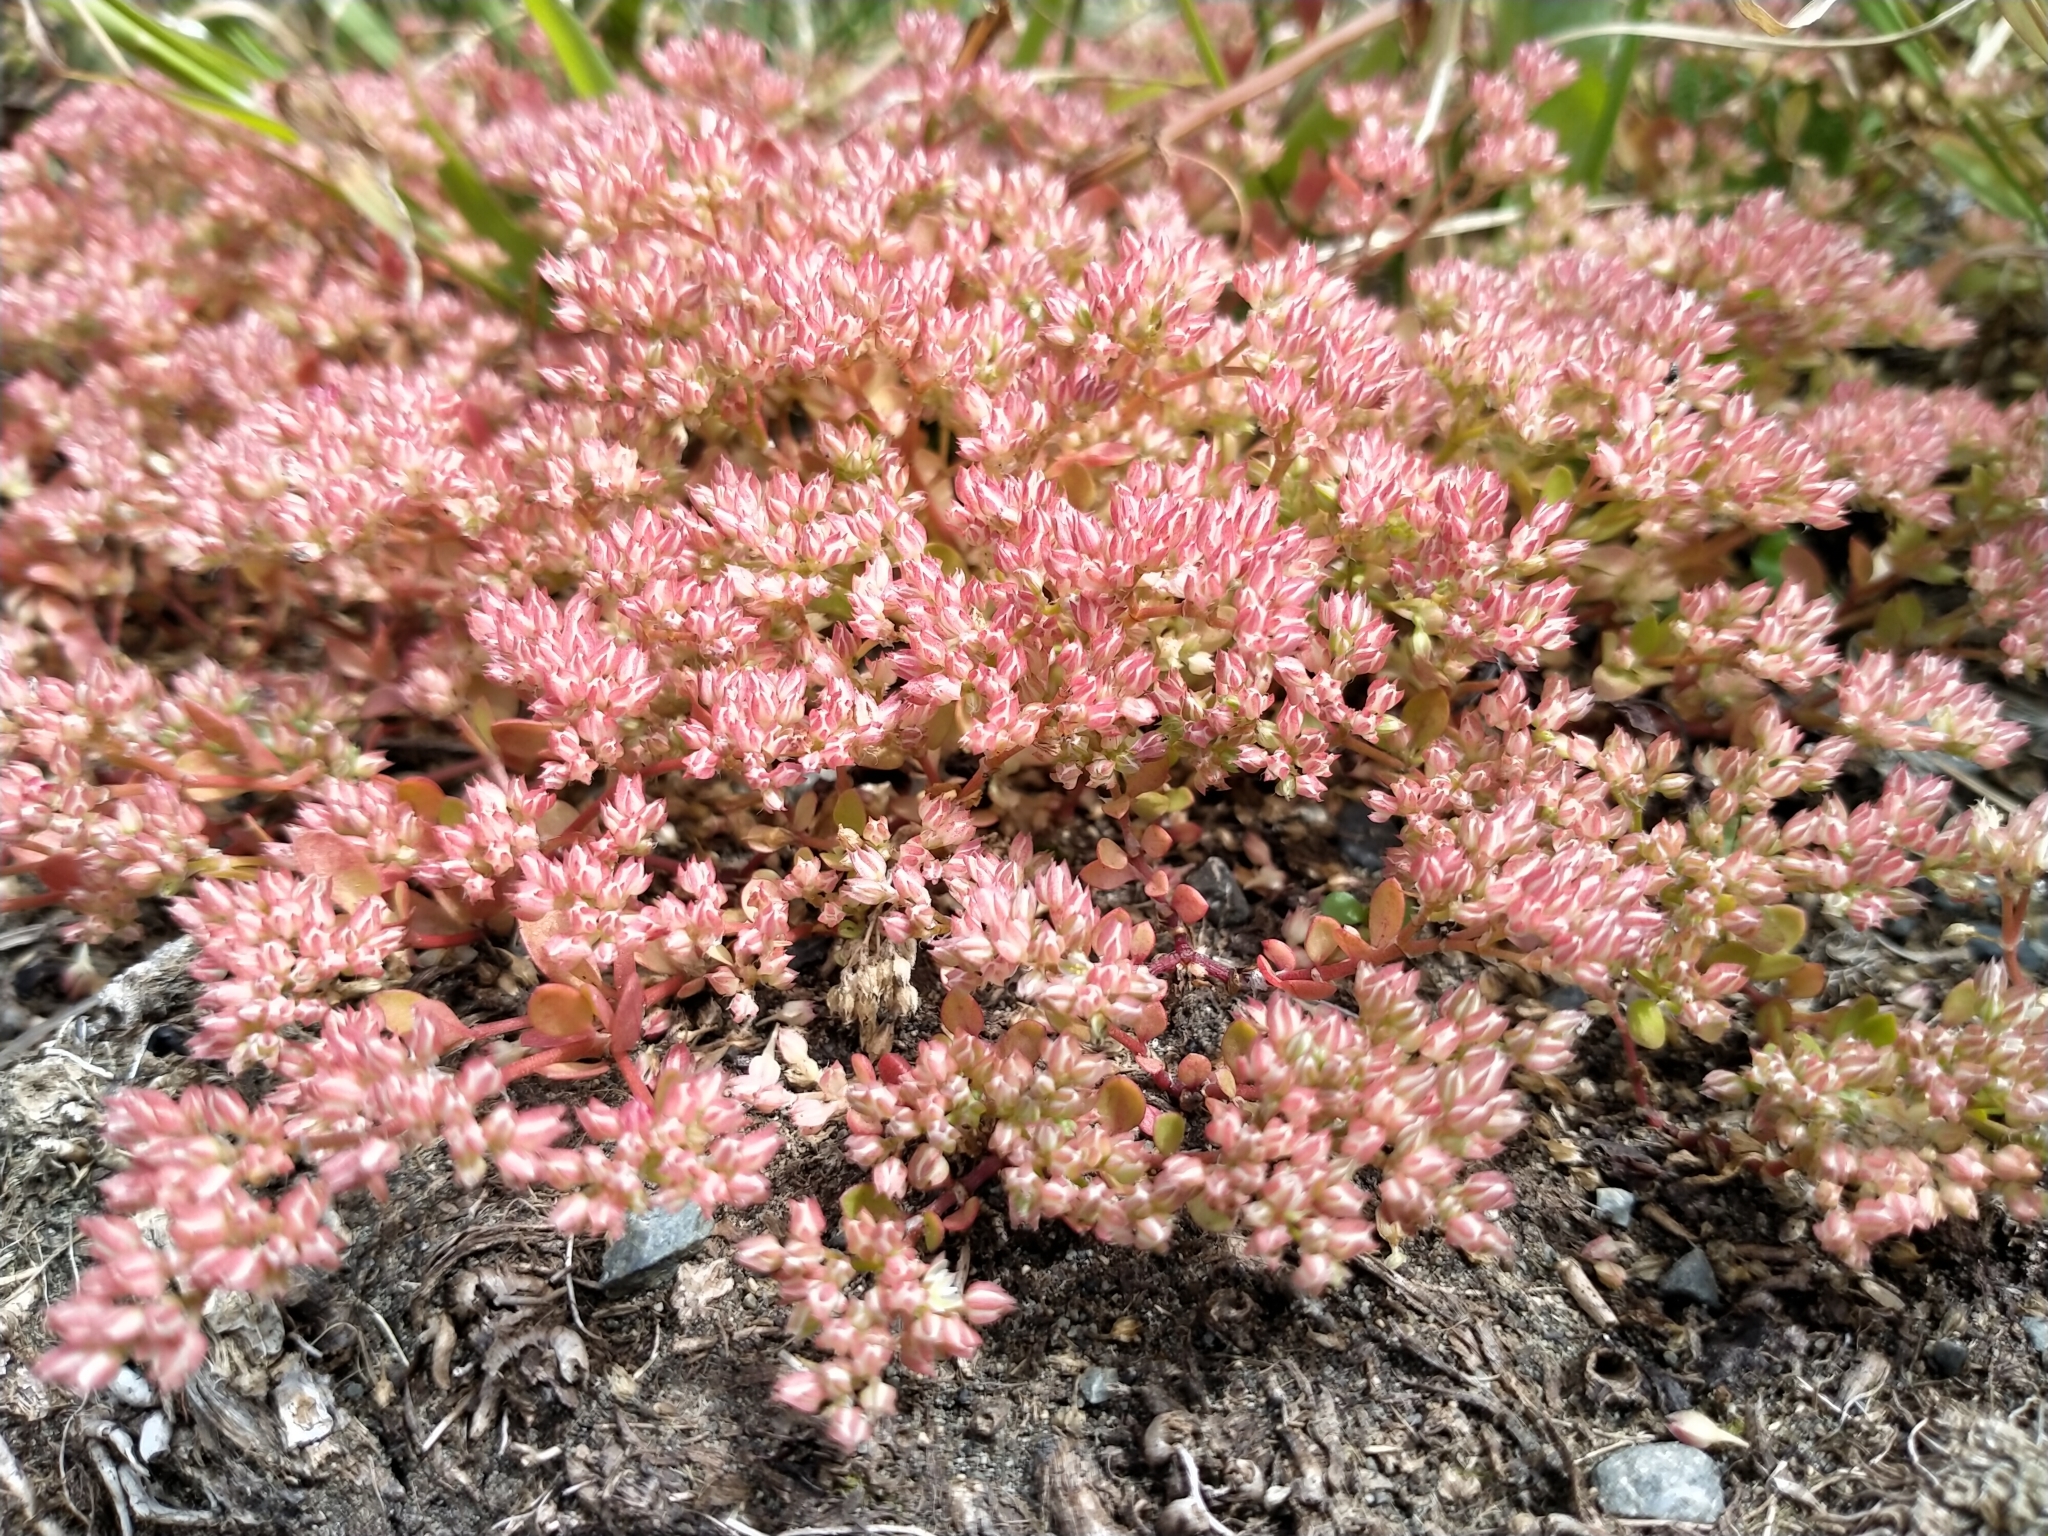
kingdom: Plantae
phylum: Tracheophyta
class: Magnoliopsida
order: Caryophyllales
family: Caryophyllaceae
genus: Polycarpon
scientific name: Polycarpon tetraphyllum
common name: Four-leaved all-seed
